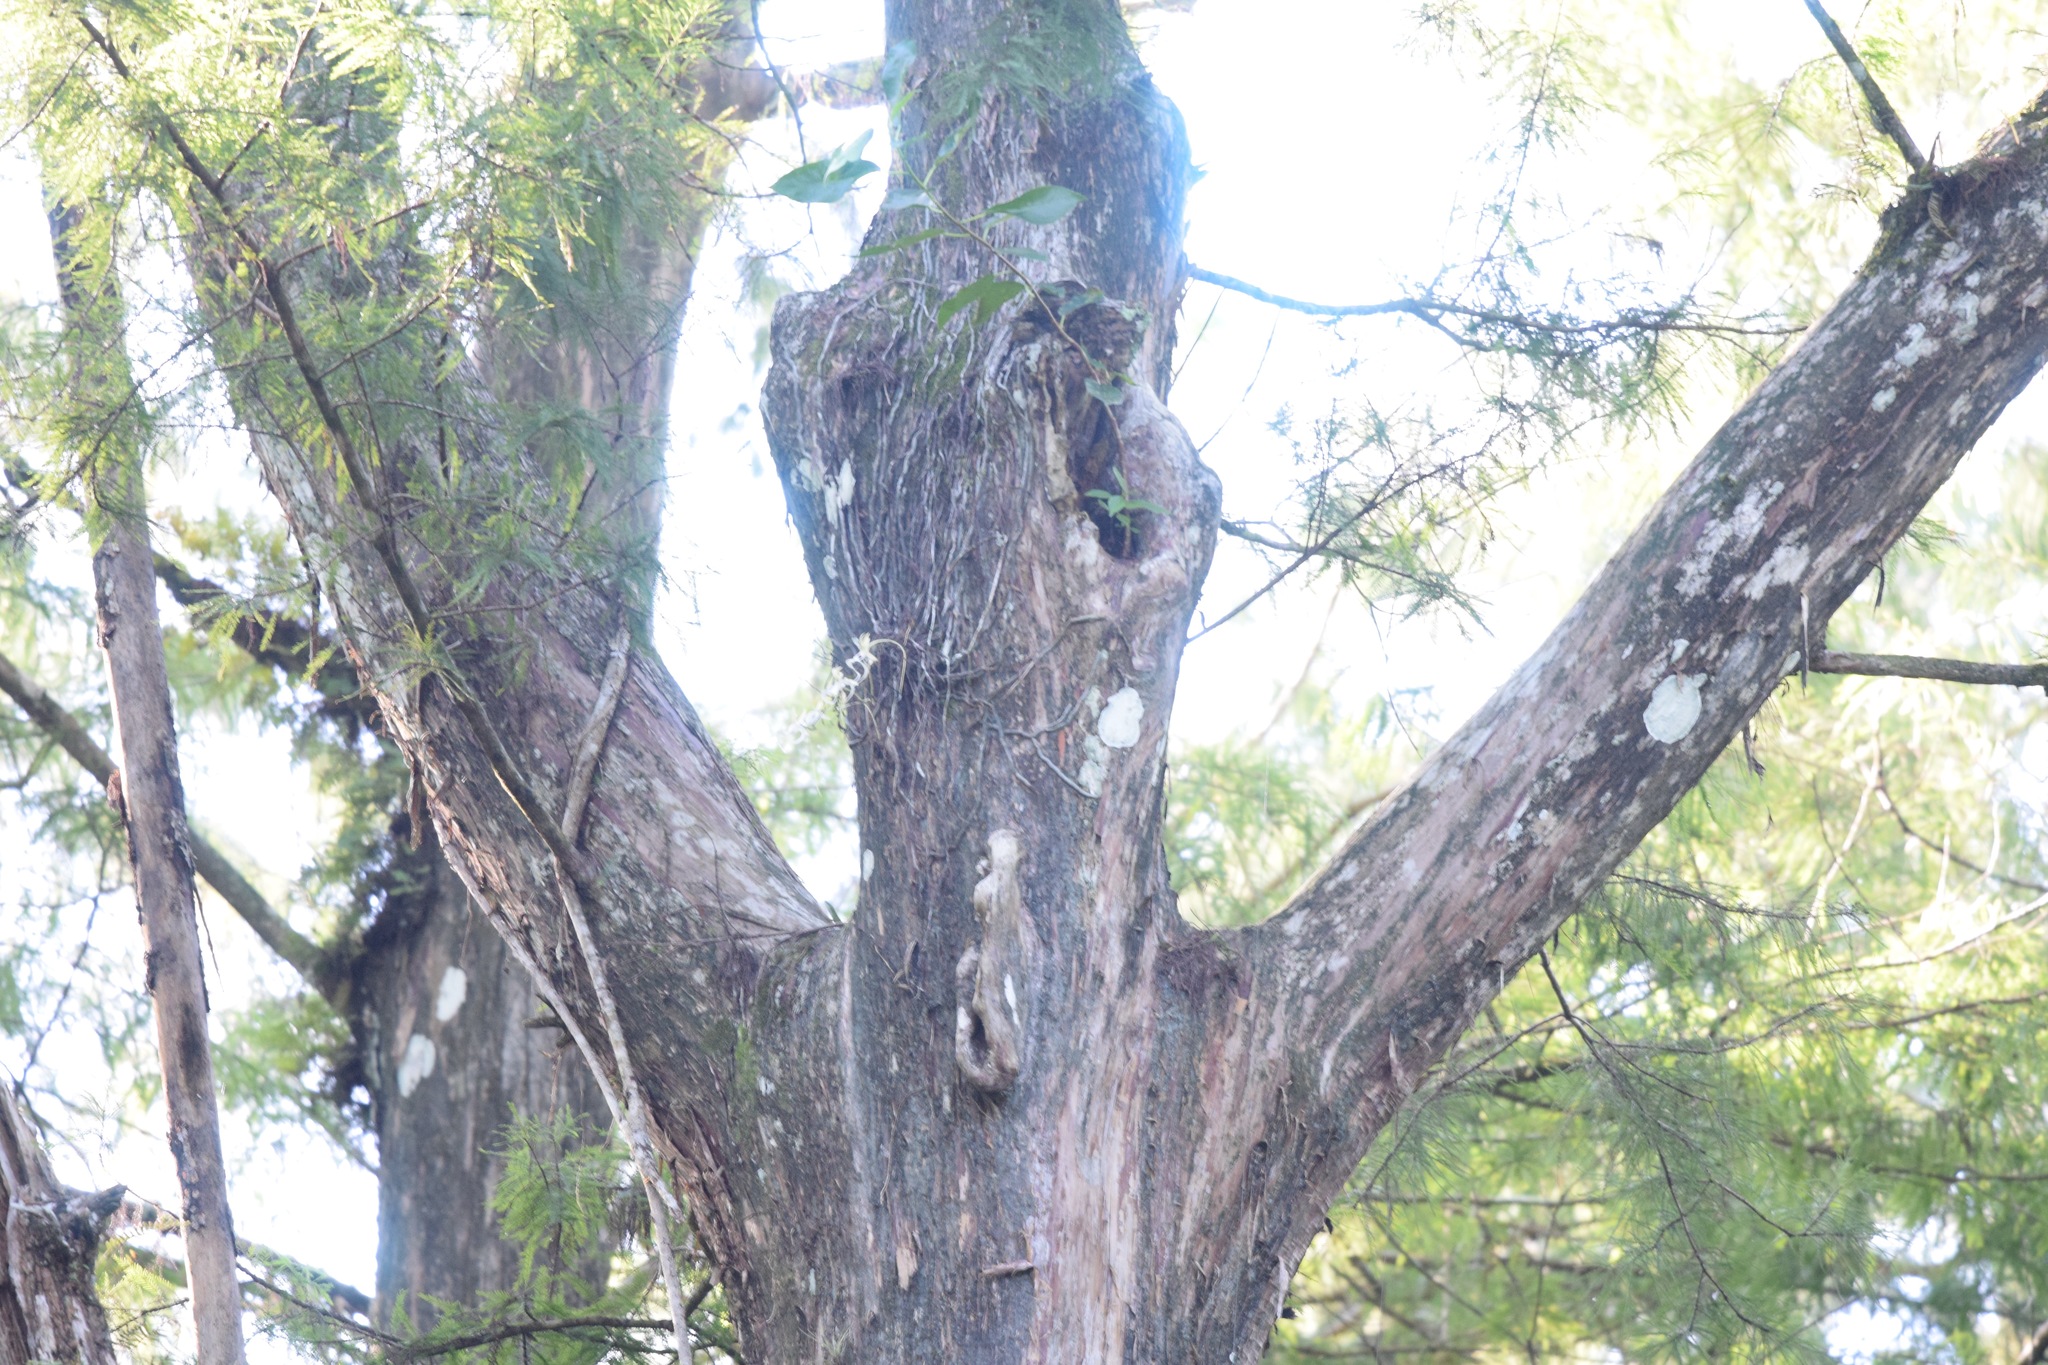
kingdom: Plantae
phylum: Tracheophyta
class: Pinopsida
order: Pinales
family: Cupressaceae
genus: Taxodium
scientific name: Taxodium distichum
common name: Bald cypress
